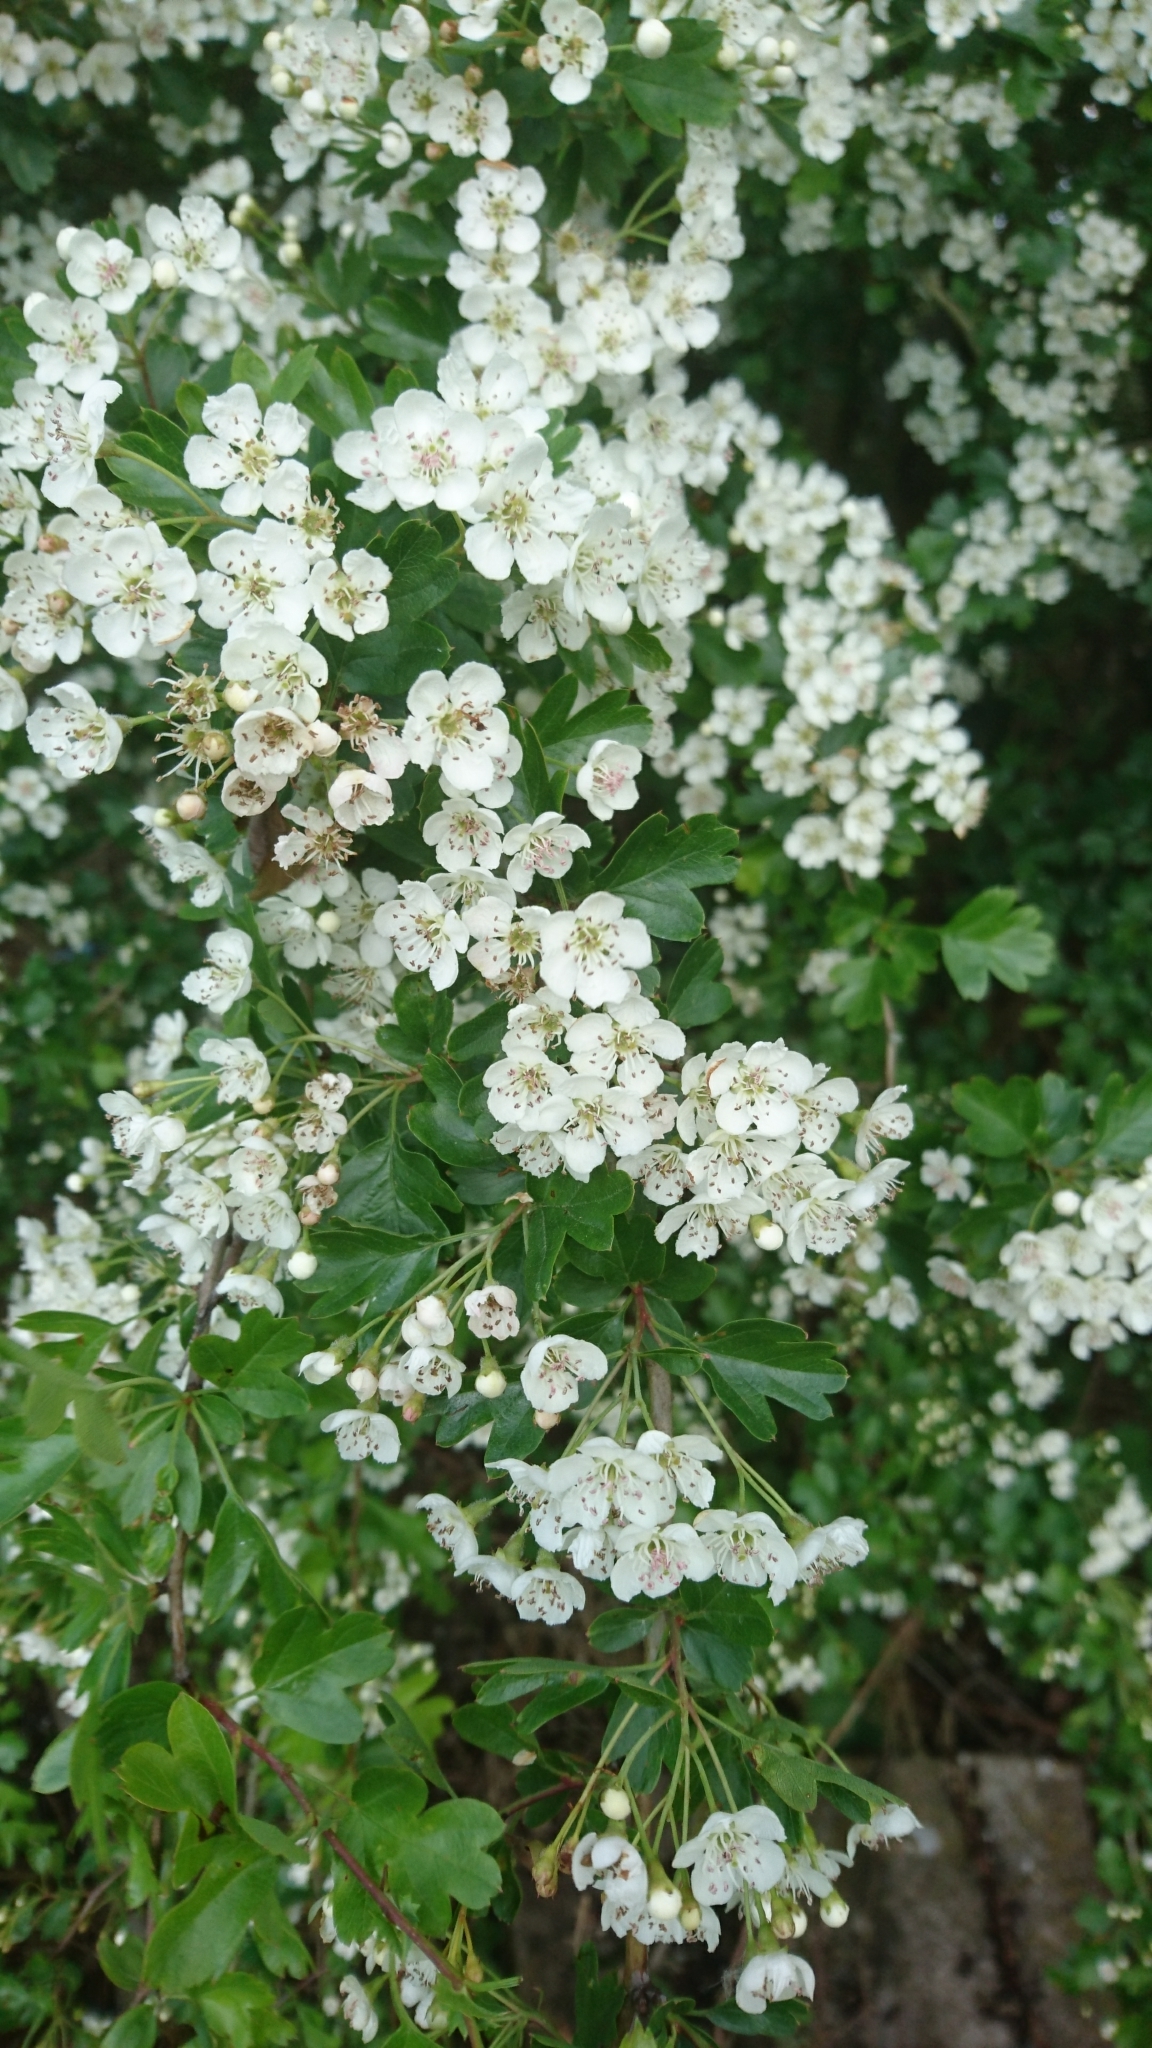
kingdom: Plantae
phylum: Tracheophyta
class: Magnoliopsida
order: Rosales
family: Rosaceae
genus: Crataegus
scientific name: Crataegus monogyna
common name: Hawthorn
